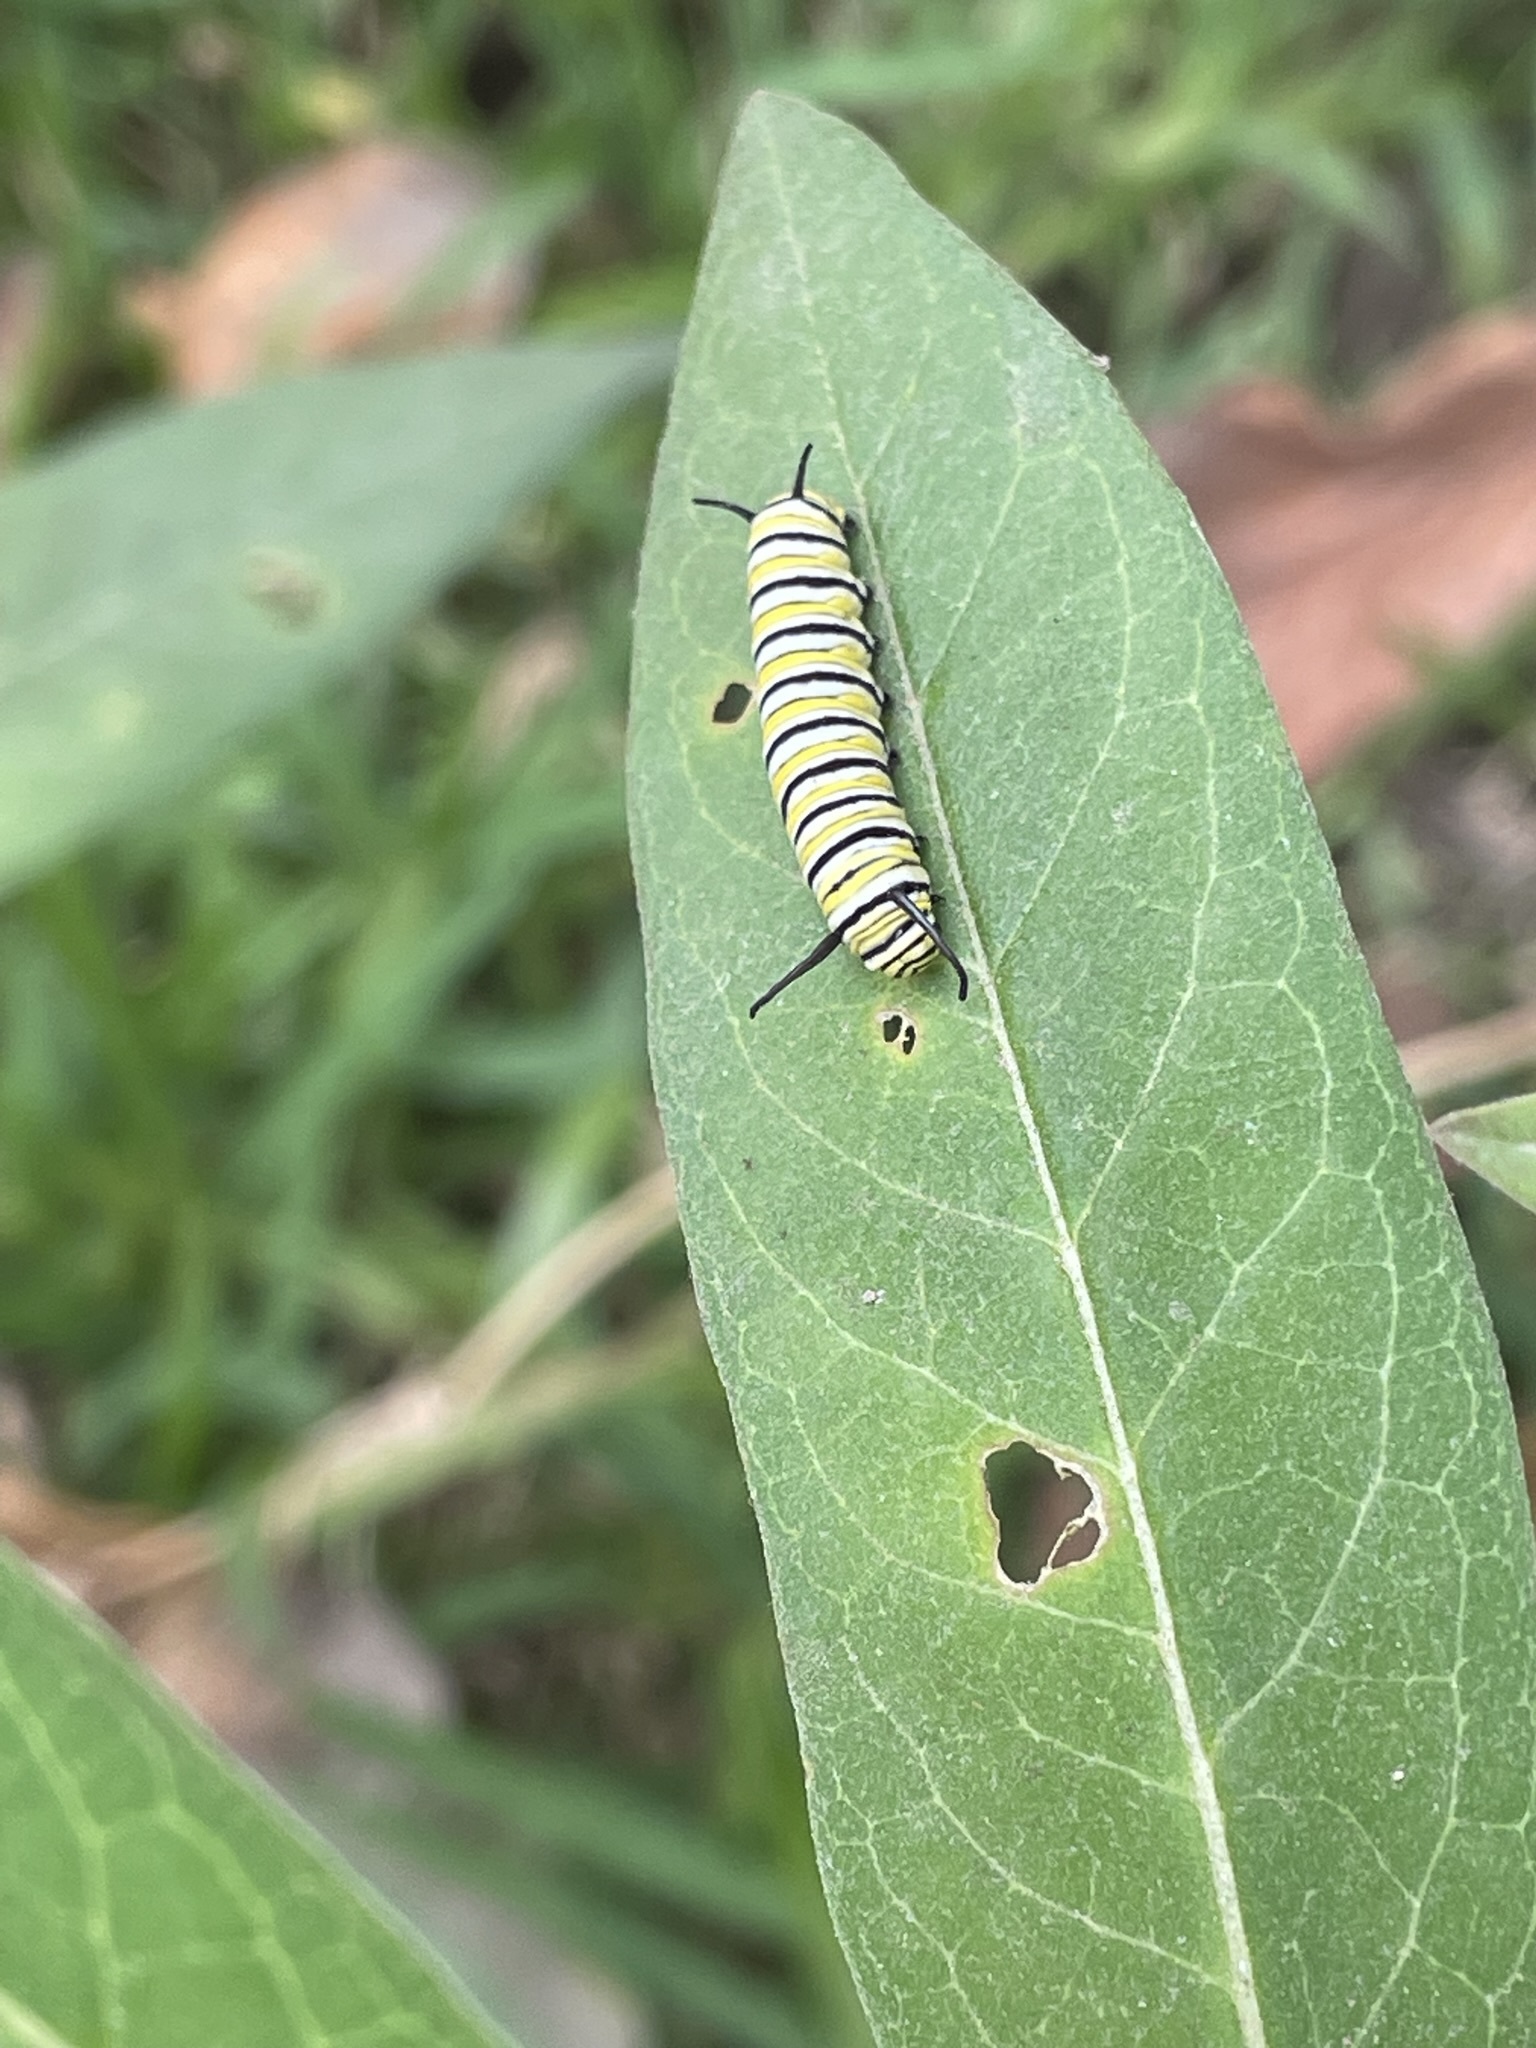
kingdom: Animalia
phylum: Arthropoda
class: Insecta
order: Lepidoptera
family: Nymphalidae
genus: Danaus
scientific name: Danaus plexippus
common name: Monarch
